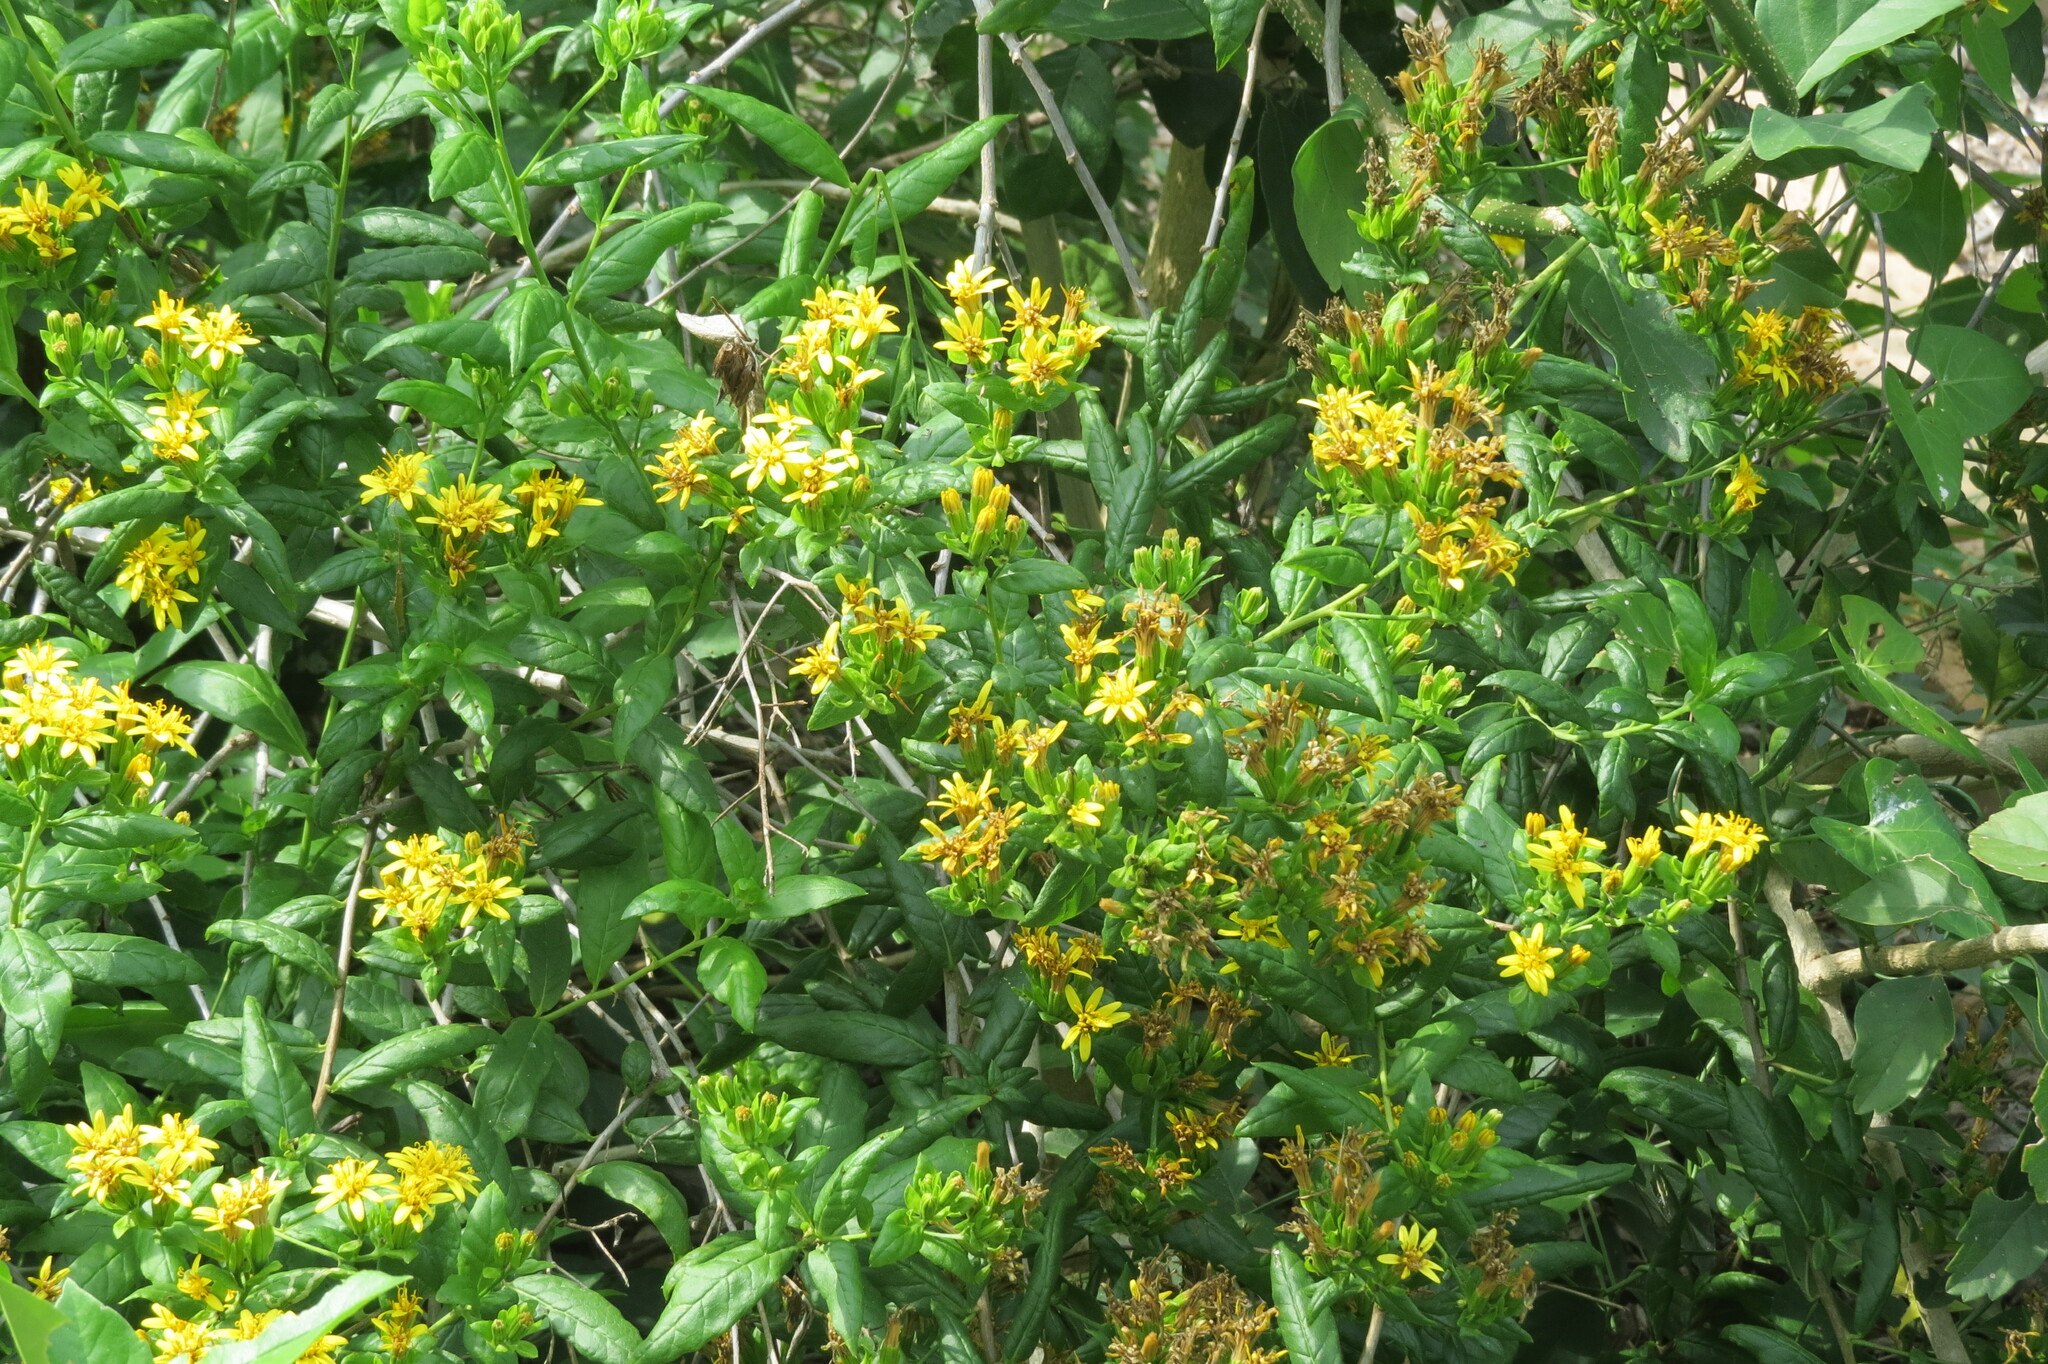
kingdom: Plantae
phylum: Tracheophyta
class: Magnoliopsida
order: Asterales
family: Asteraceae
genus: Trixis
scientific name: Trixis inula
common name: Tropical threefold
